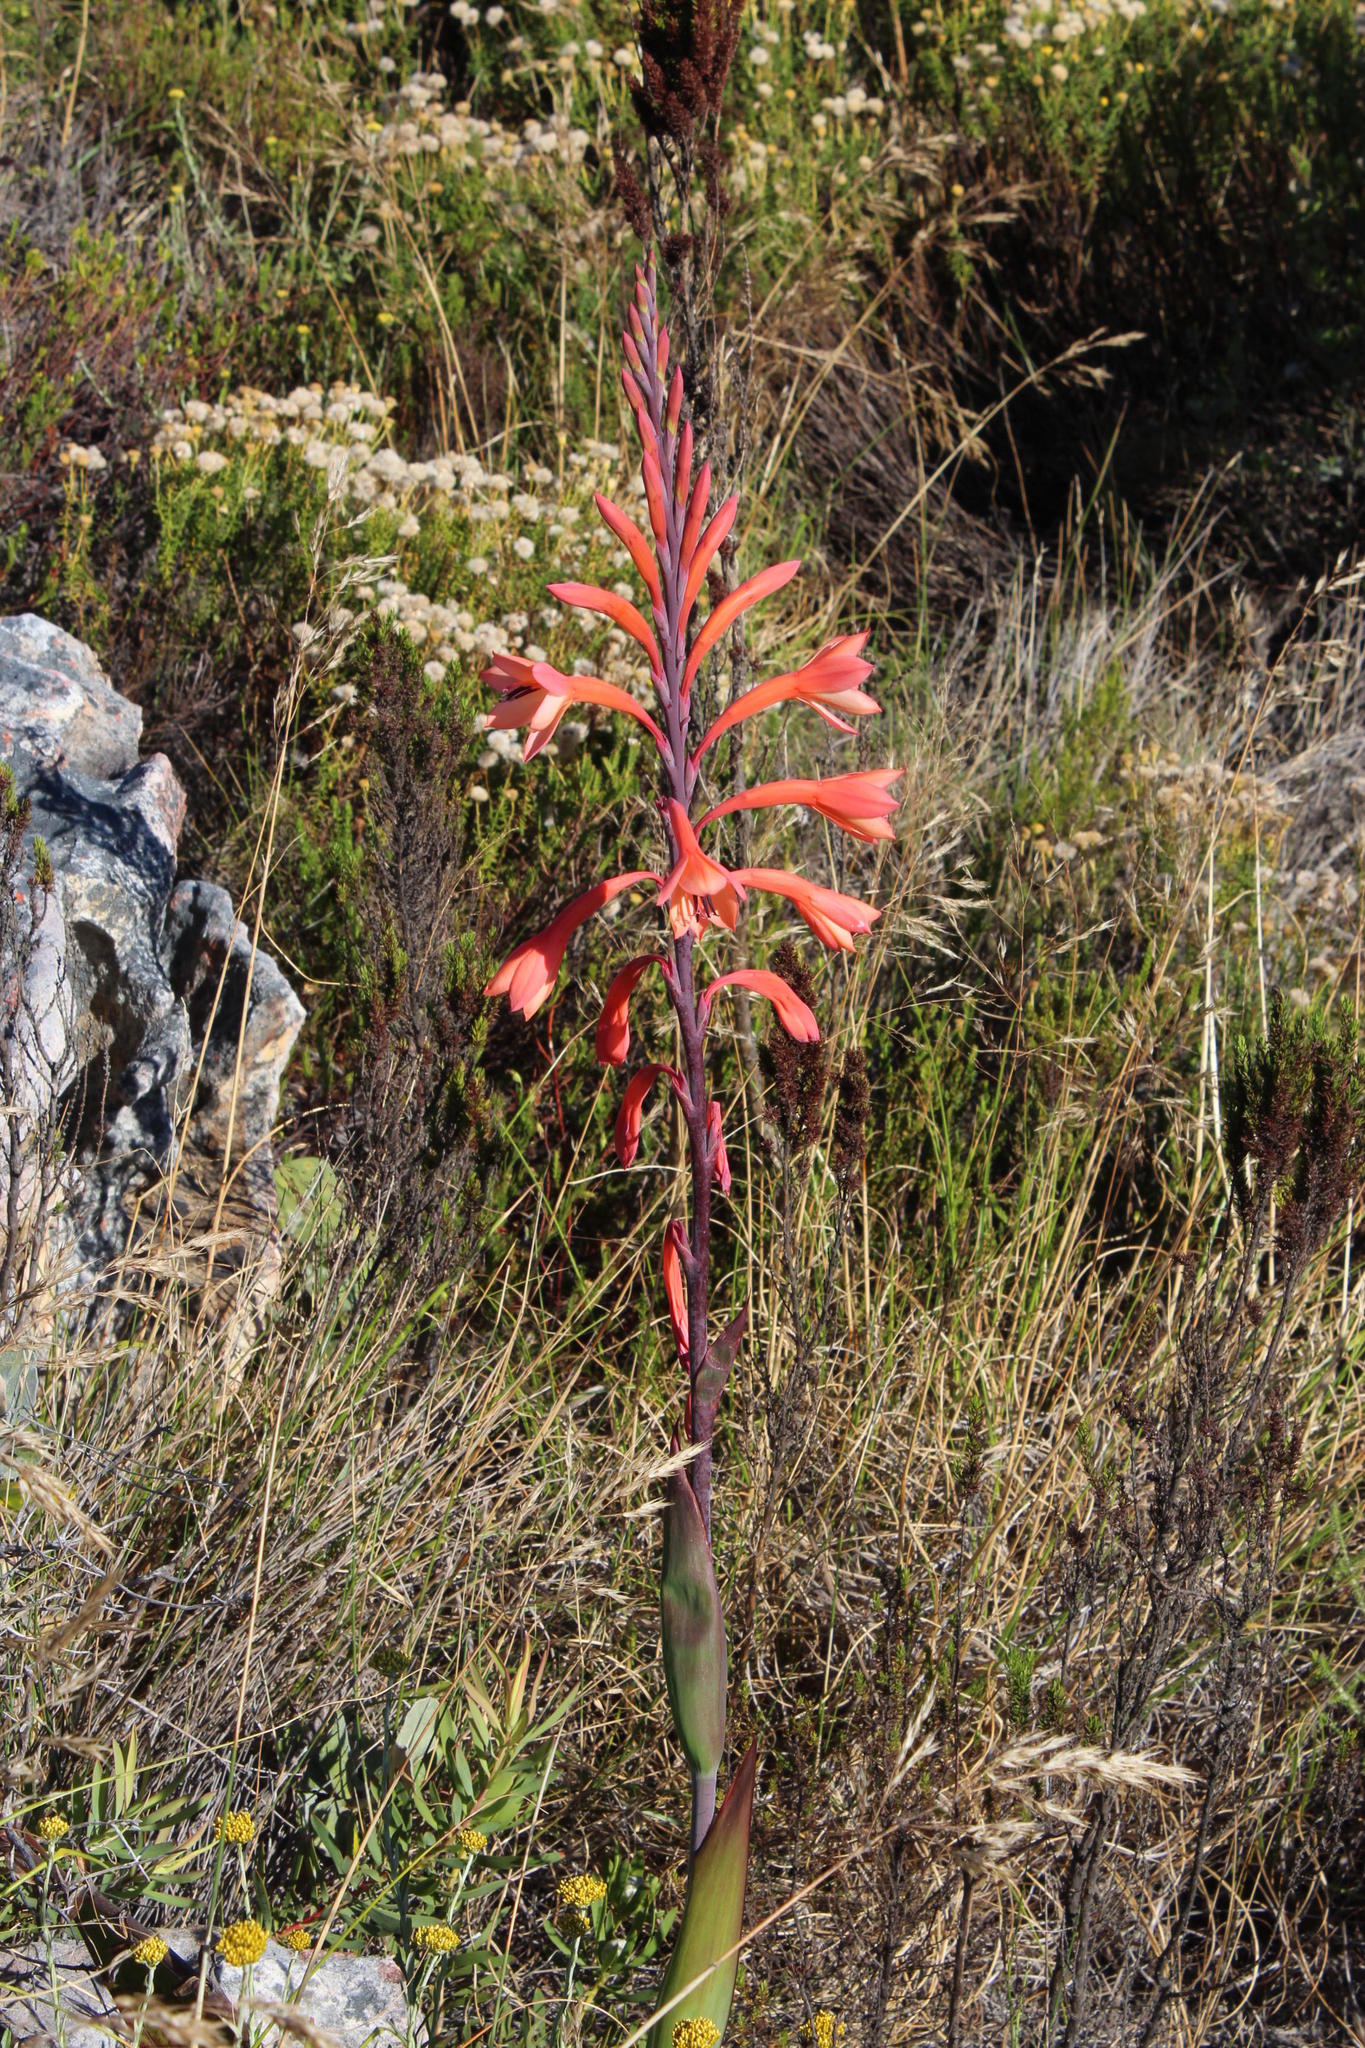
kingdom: Plantae
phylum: Tracheophyta
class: Liliopsida
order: Asparagales
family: Iridaceae
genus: Watsonia
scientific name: Watsonia tabularis
